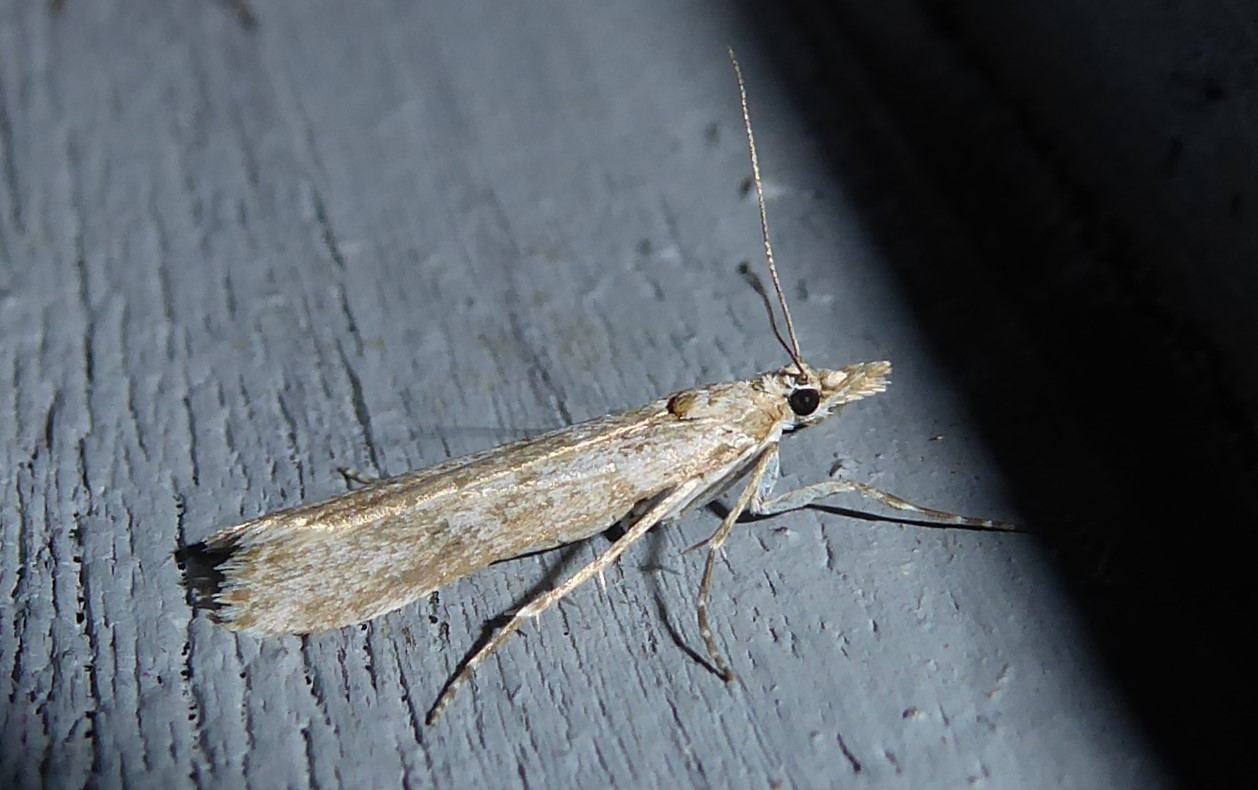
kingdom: Animalia
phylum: Arthropoda
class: Insecta
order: Lepidoptera
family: Crambidae
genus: Eudonia
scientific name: Eudonia leptalea
